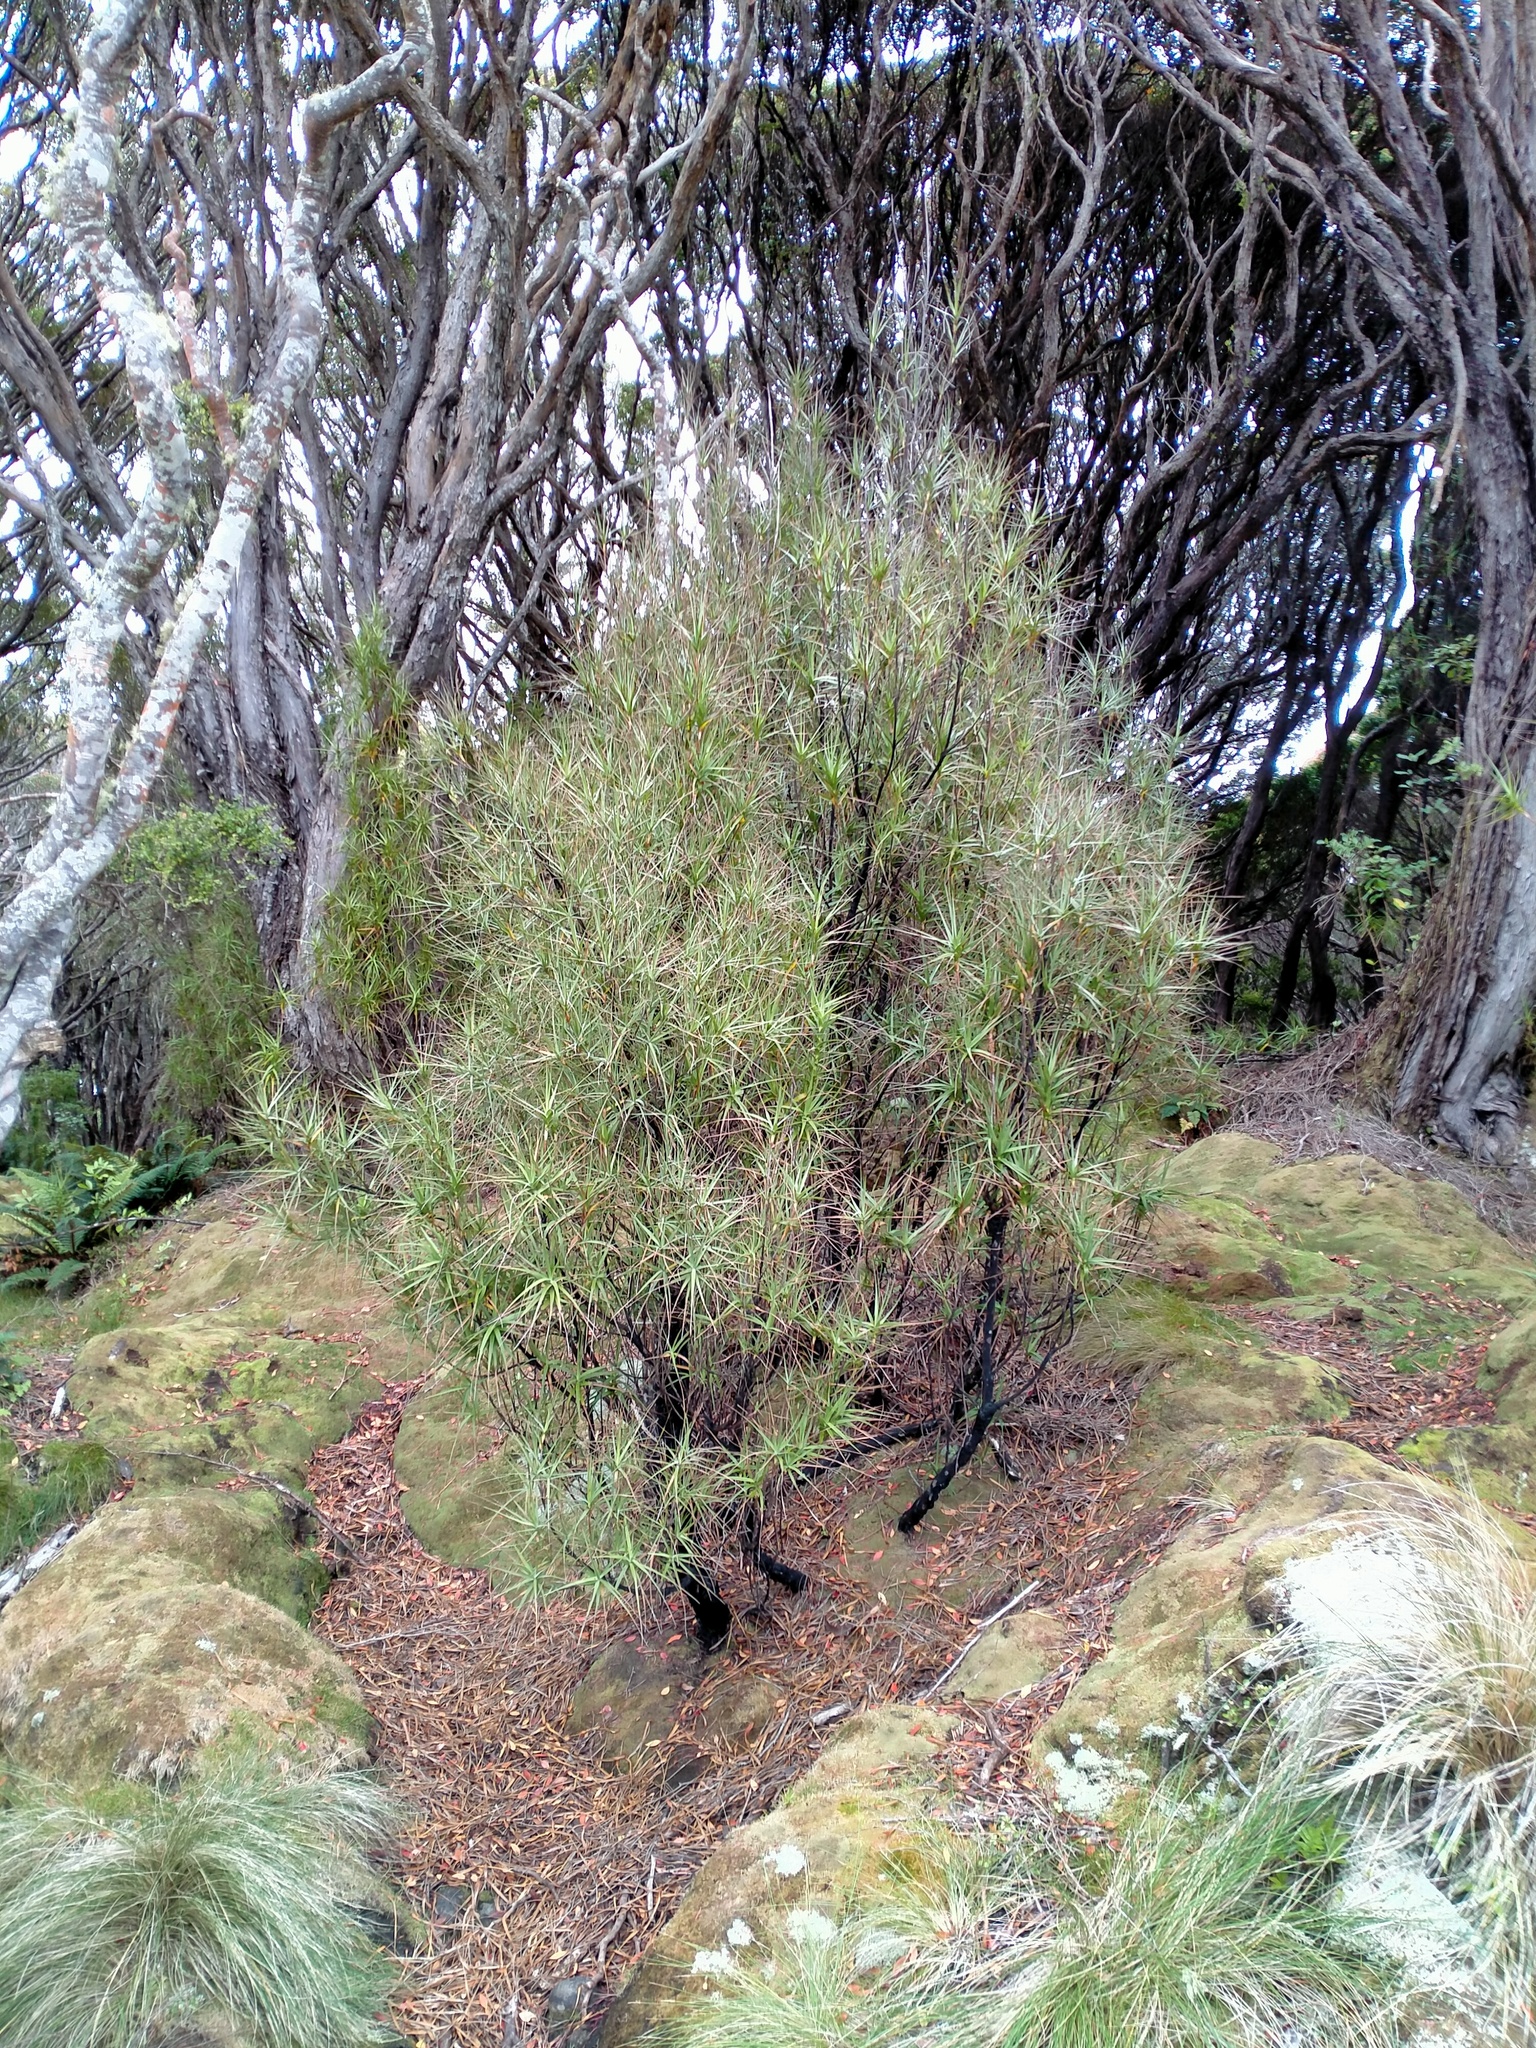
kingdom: Plantae
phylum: Tracheophyta
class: Magnoliopsida
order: Ericales
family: Ericaceae
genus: Dracophyllum
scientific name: Dracophyllum longifolium
